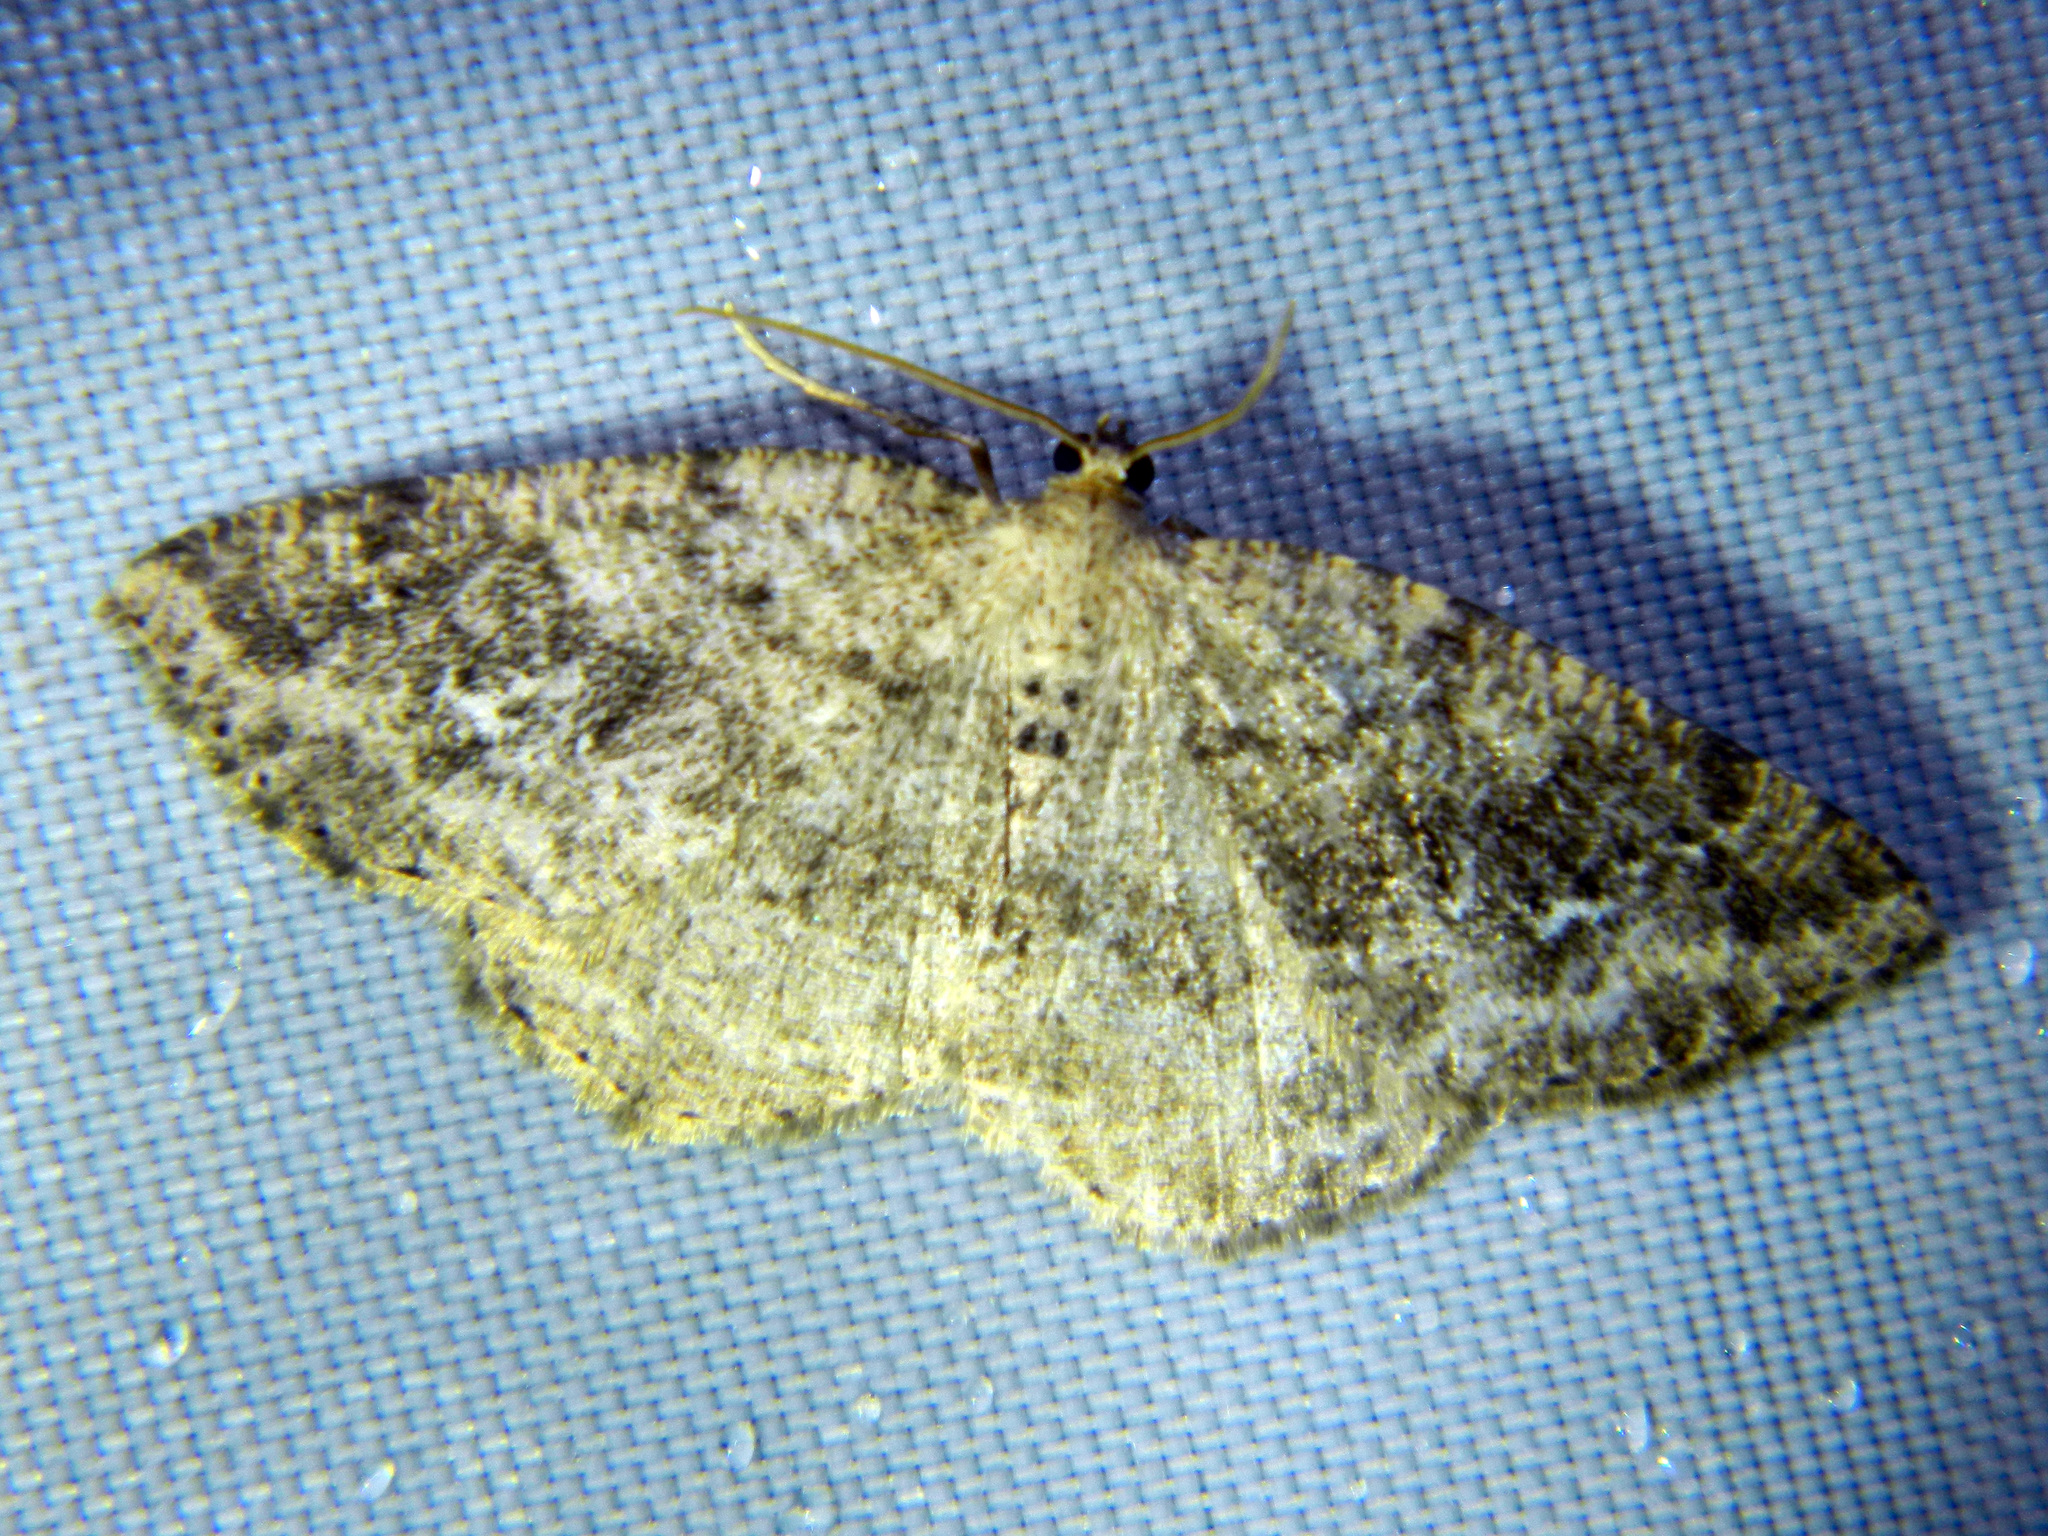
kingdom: Animalia
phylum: Arthropoda
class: Insecta
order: Lepidoptera
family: Geometridae
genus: Homochlodes
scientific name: Homochlodes fritillaria
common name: Pale homochlodes
